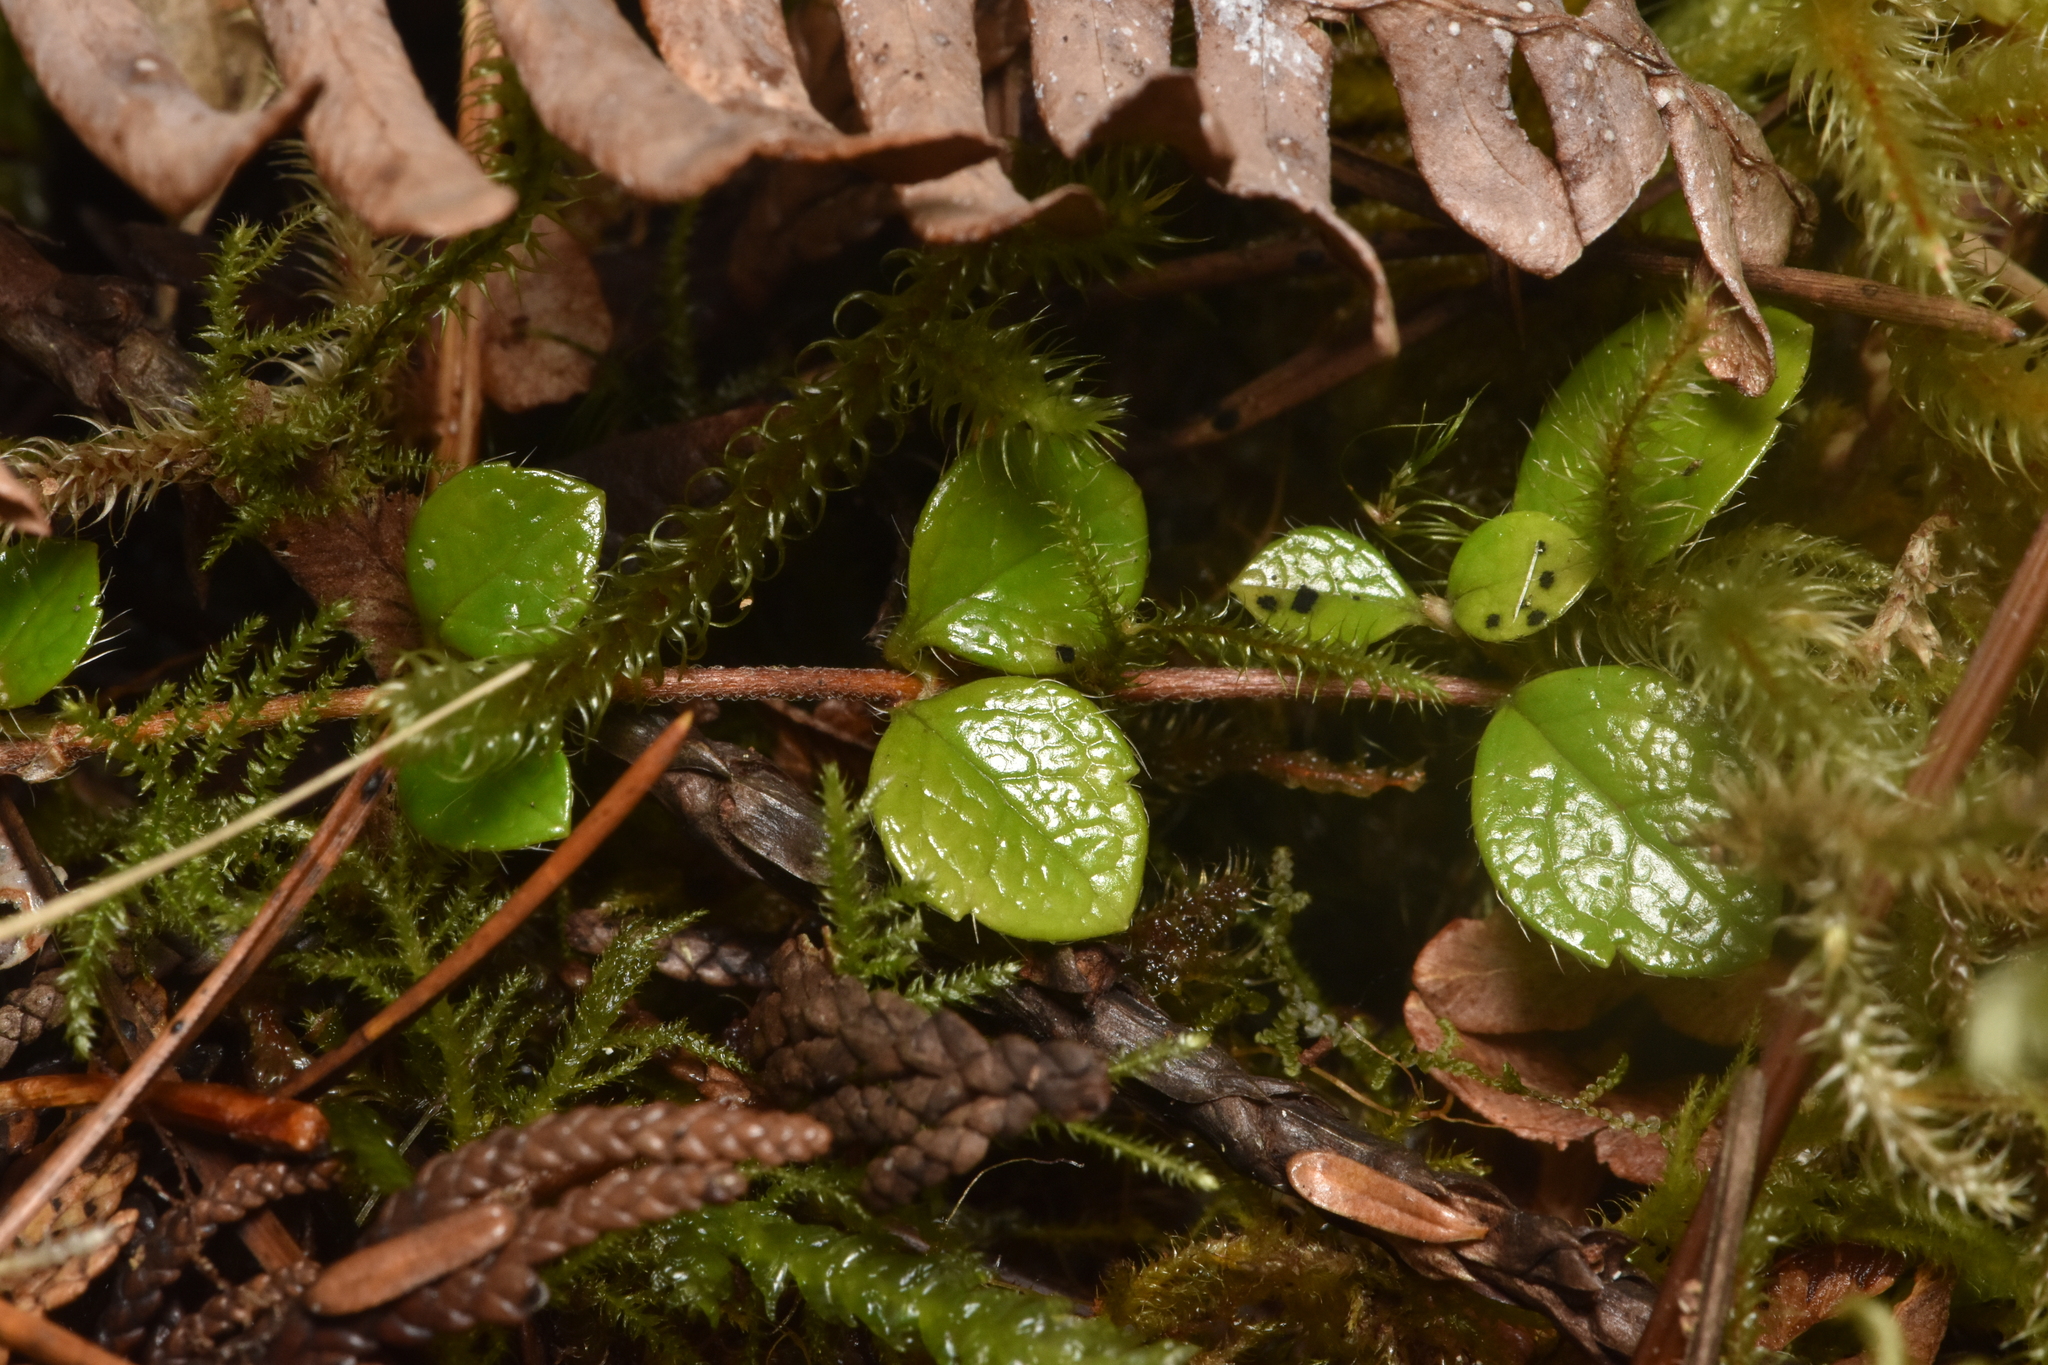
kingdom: Plantae
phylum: Tracheophyta
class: Magnoliopsida
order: Dipsacales
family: Caprifoliaceae
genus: Linnaea
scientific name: Linnaea borealis
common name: Twinflower
